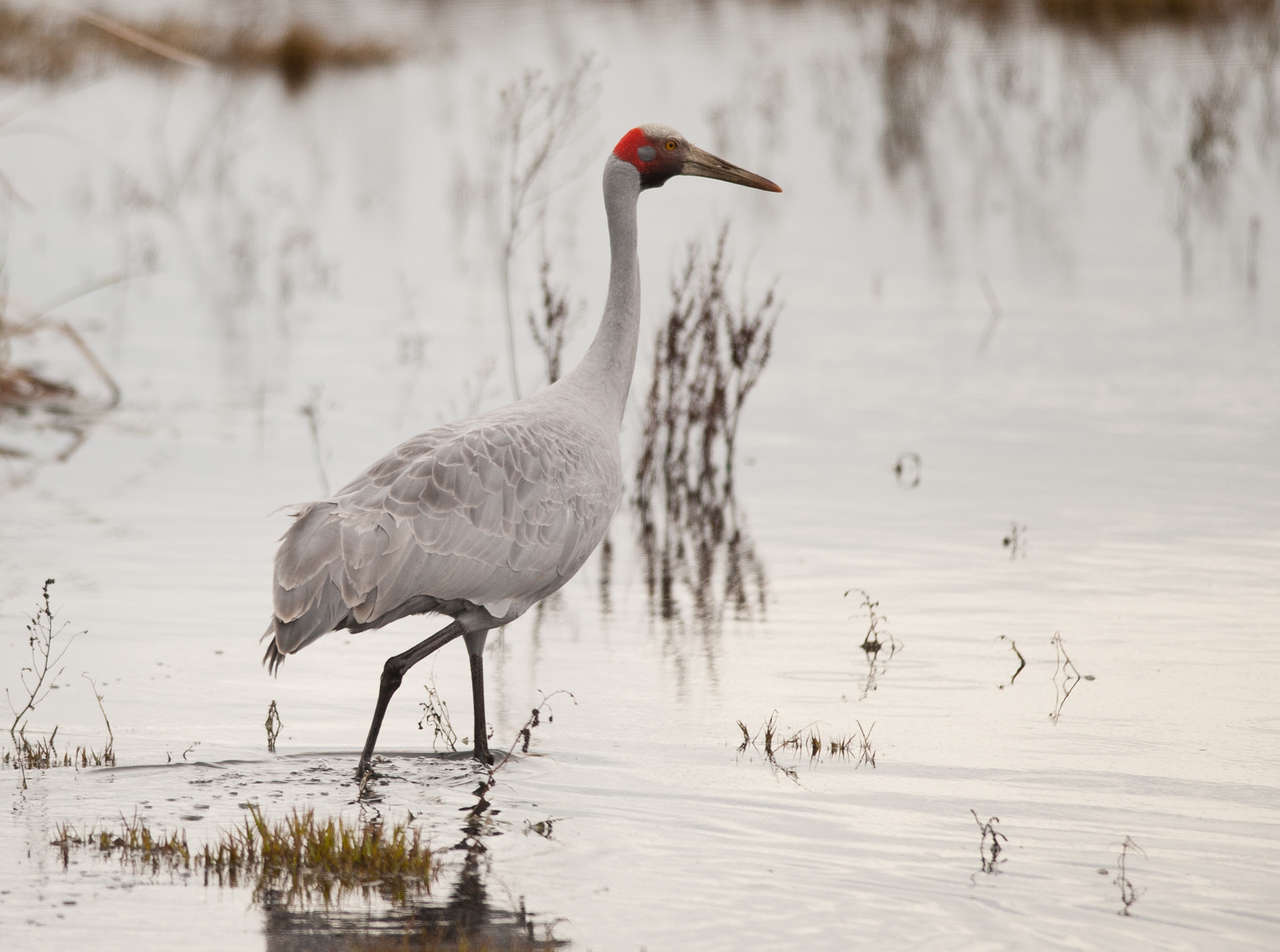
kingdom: Animalia
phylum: Chordata
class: Aves
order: Gruiformes
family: Gruidae
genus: Grus
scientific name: Grus rubicunda
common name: Brolga
